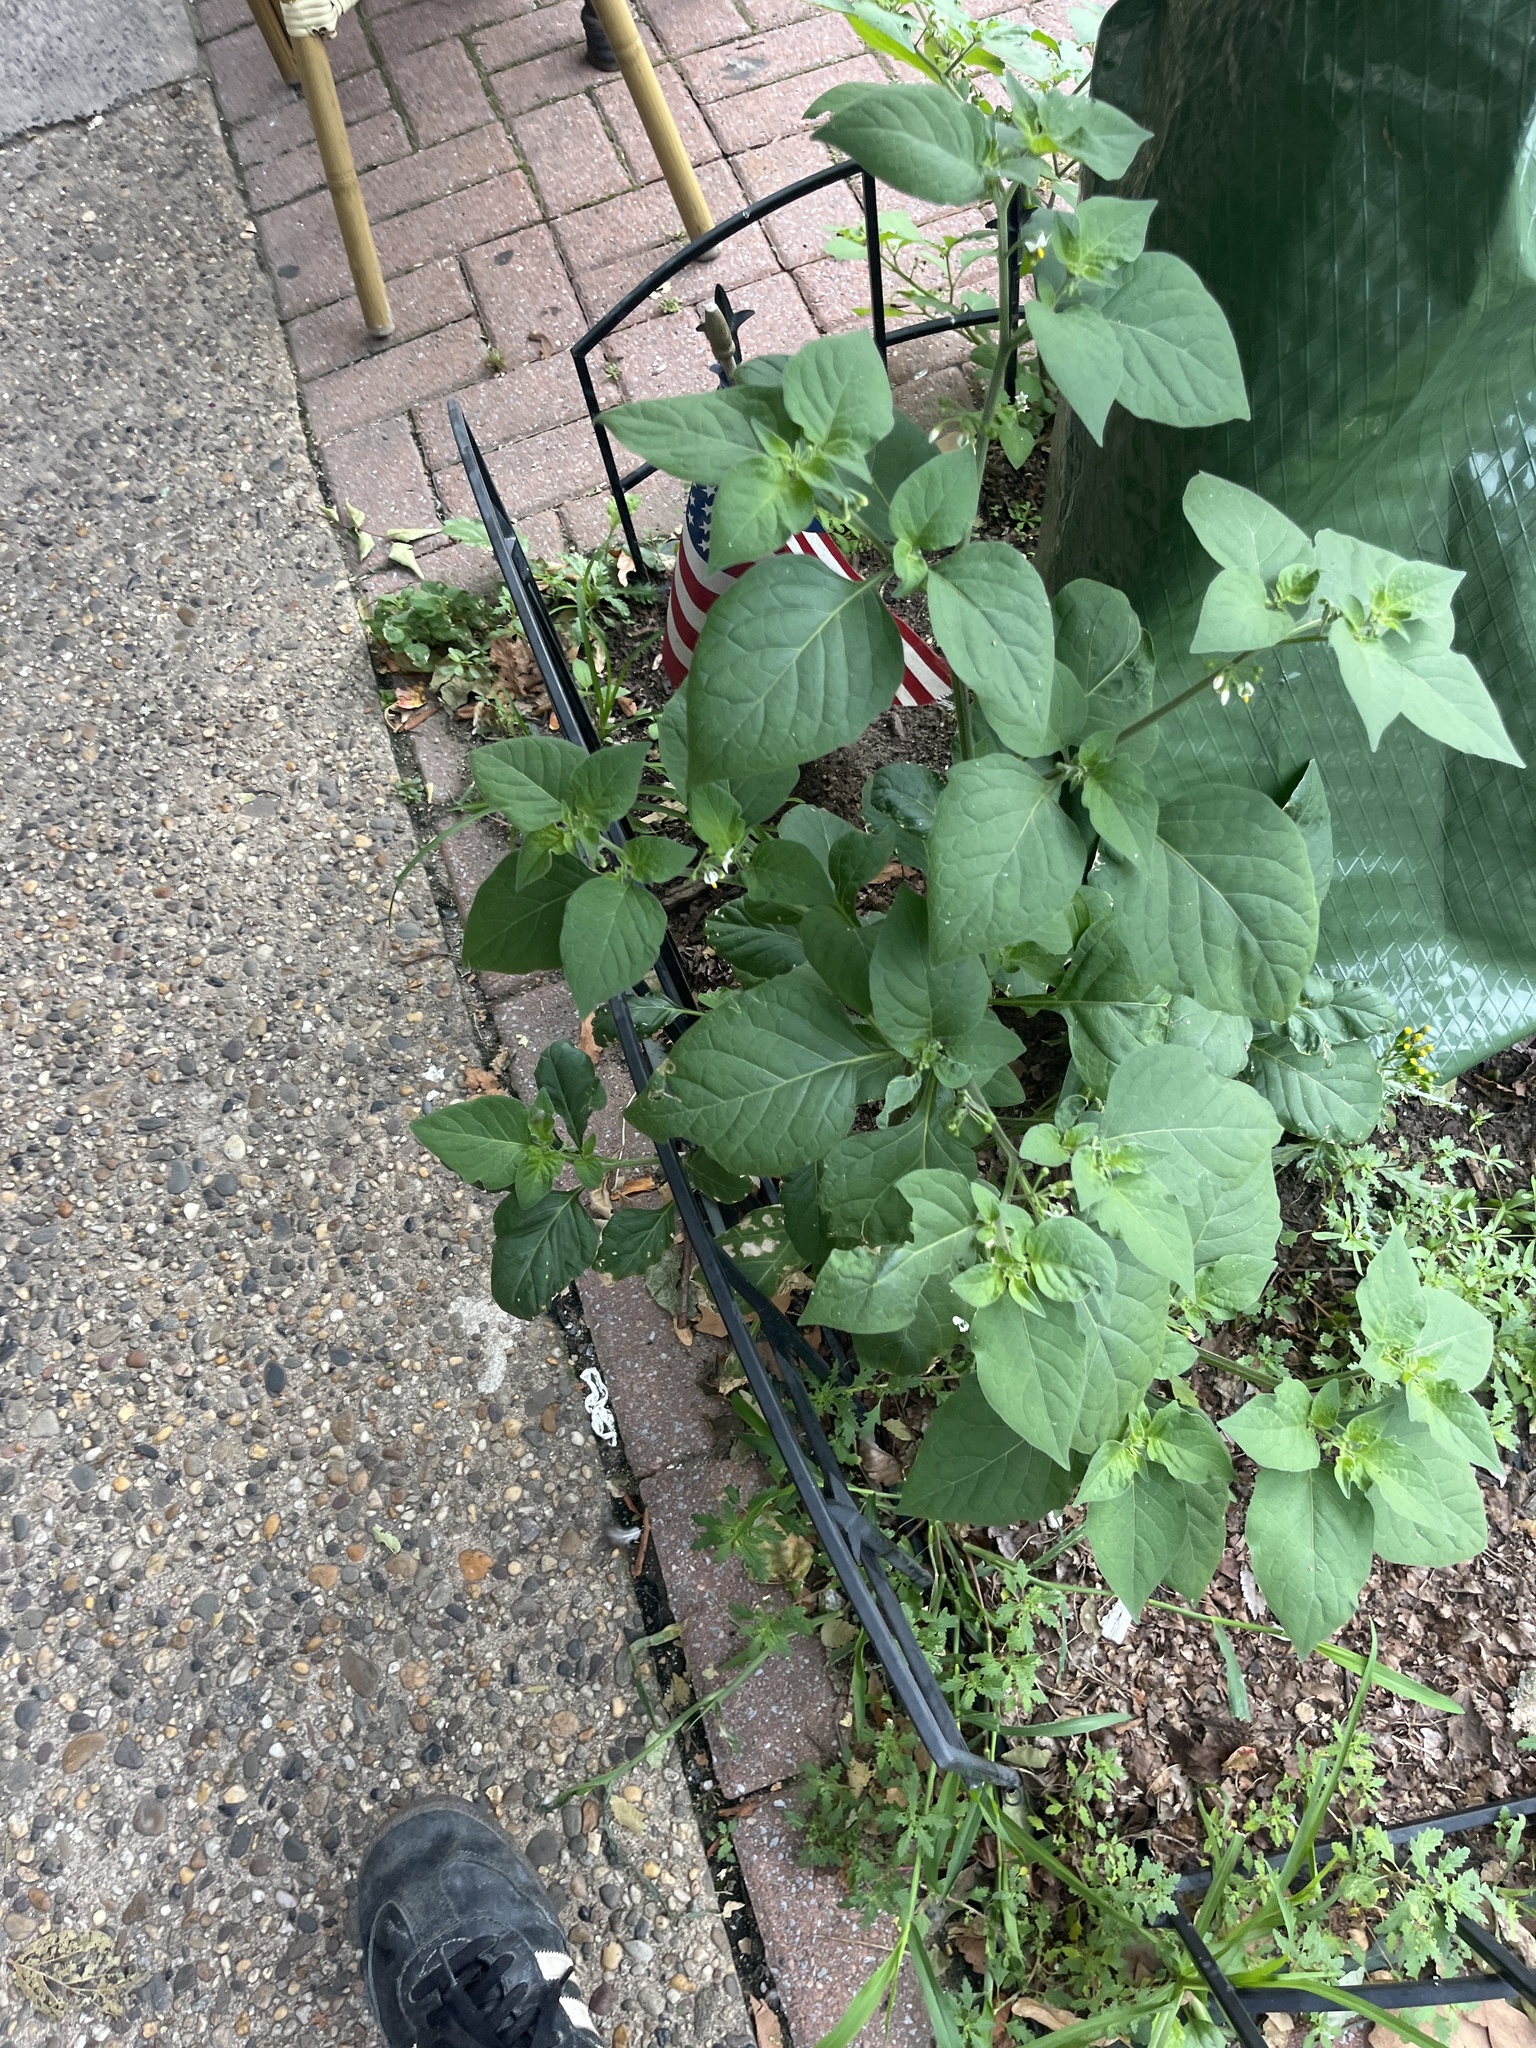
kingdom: Plantae
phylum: Tracheophyta
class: Magnoliopsida
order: Solanales
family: Solanaceae
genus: Solanum
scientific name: Solanum nigrum
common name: Black nightshade
